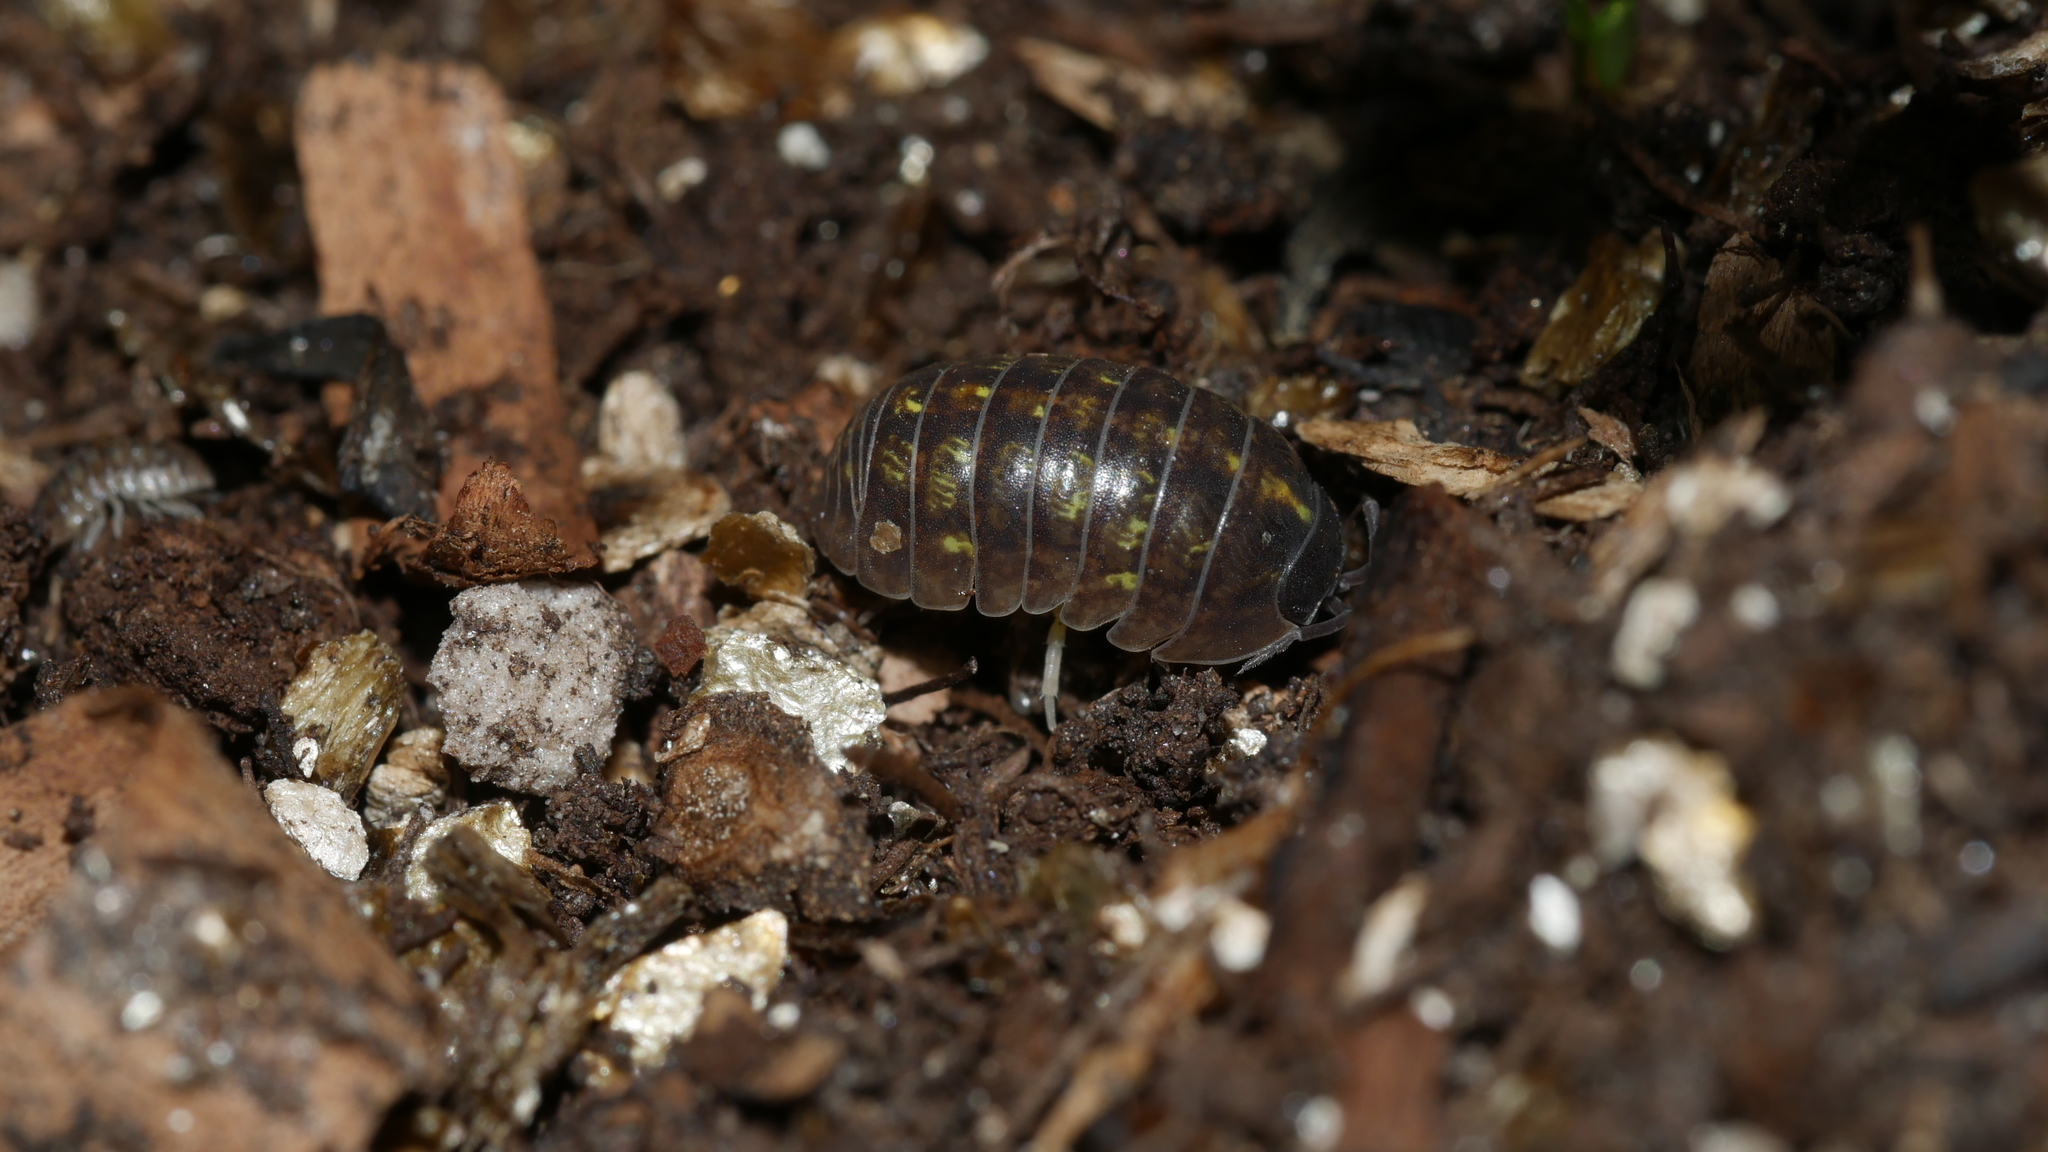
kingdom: Animalia
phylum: Arthropoda
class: Malacostraca
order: Isopoda
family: Armadillidiidae
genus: Armadillidium
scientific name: Armadillidium vulgare
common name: Common pill woodlouse
